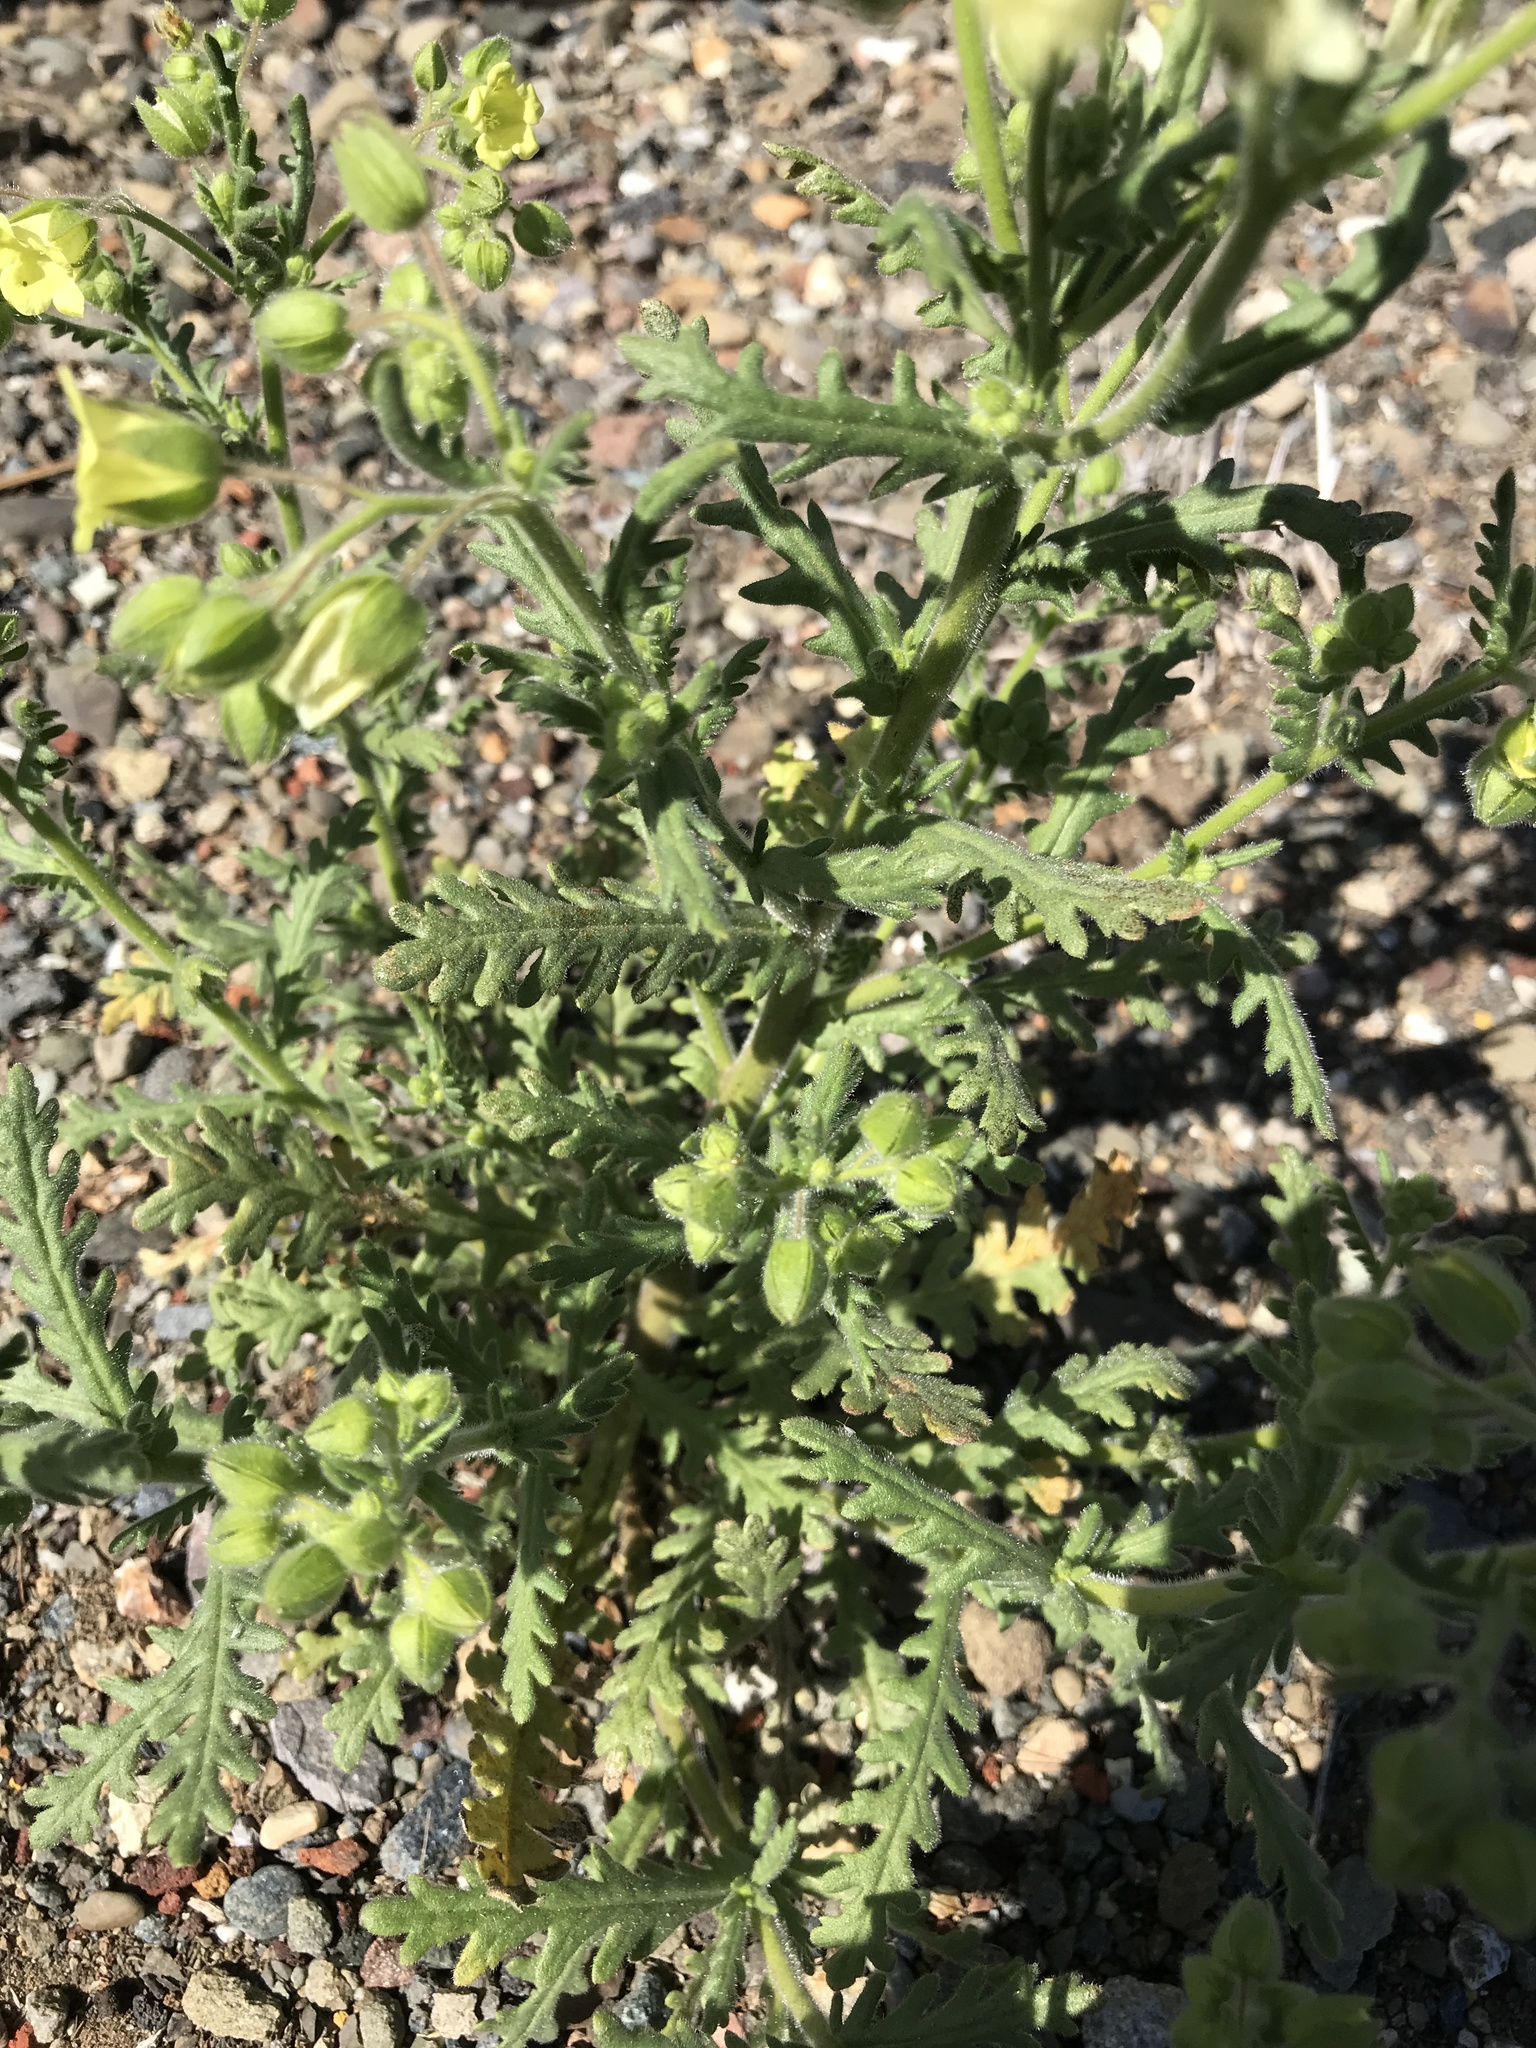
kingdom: Plantae
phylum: Tracheophyta
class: Magnoliopsida
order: Boraginales
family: Hydrophyllaceae
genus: Emmenanthe
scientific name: Emmenanthe penduliflora
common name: Whispering-bells
